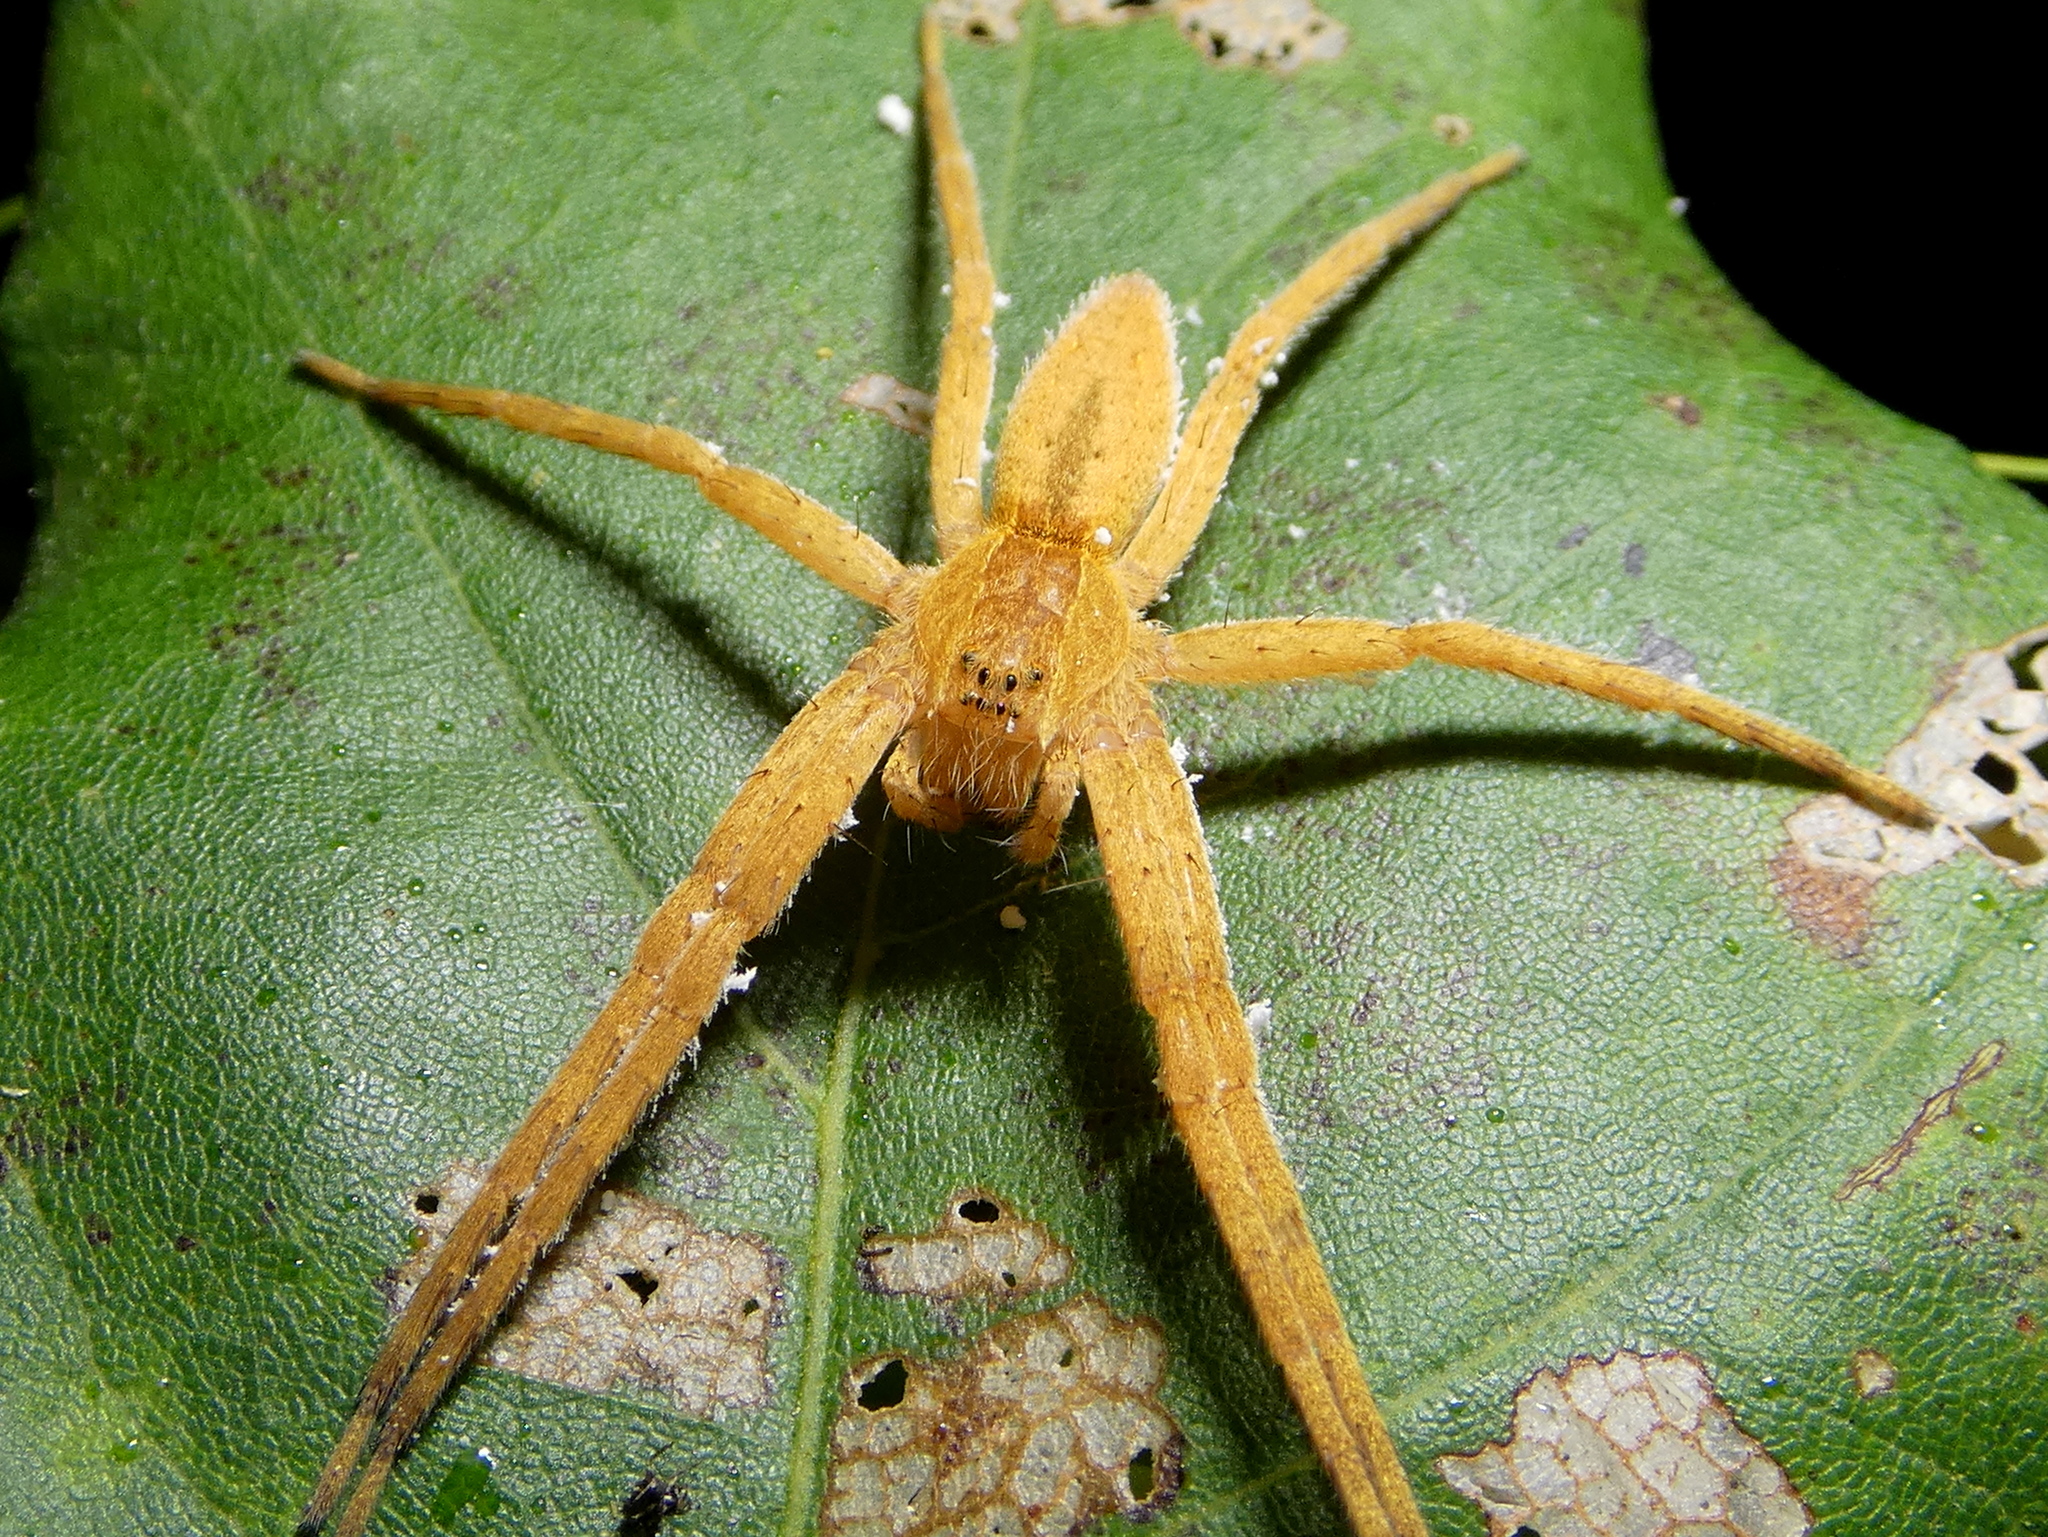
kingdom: Animalia
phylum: Arthropoda
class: Arachnida
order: Araneae
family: Pisauridae
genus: Pisaurina
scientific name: Pisaurina mira
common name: American nursery web spider
